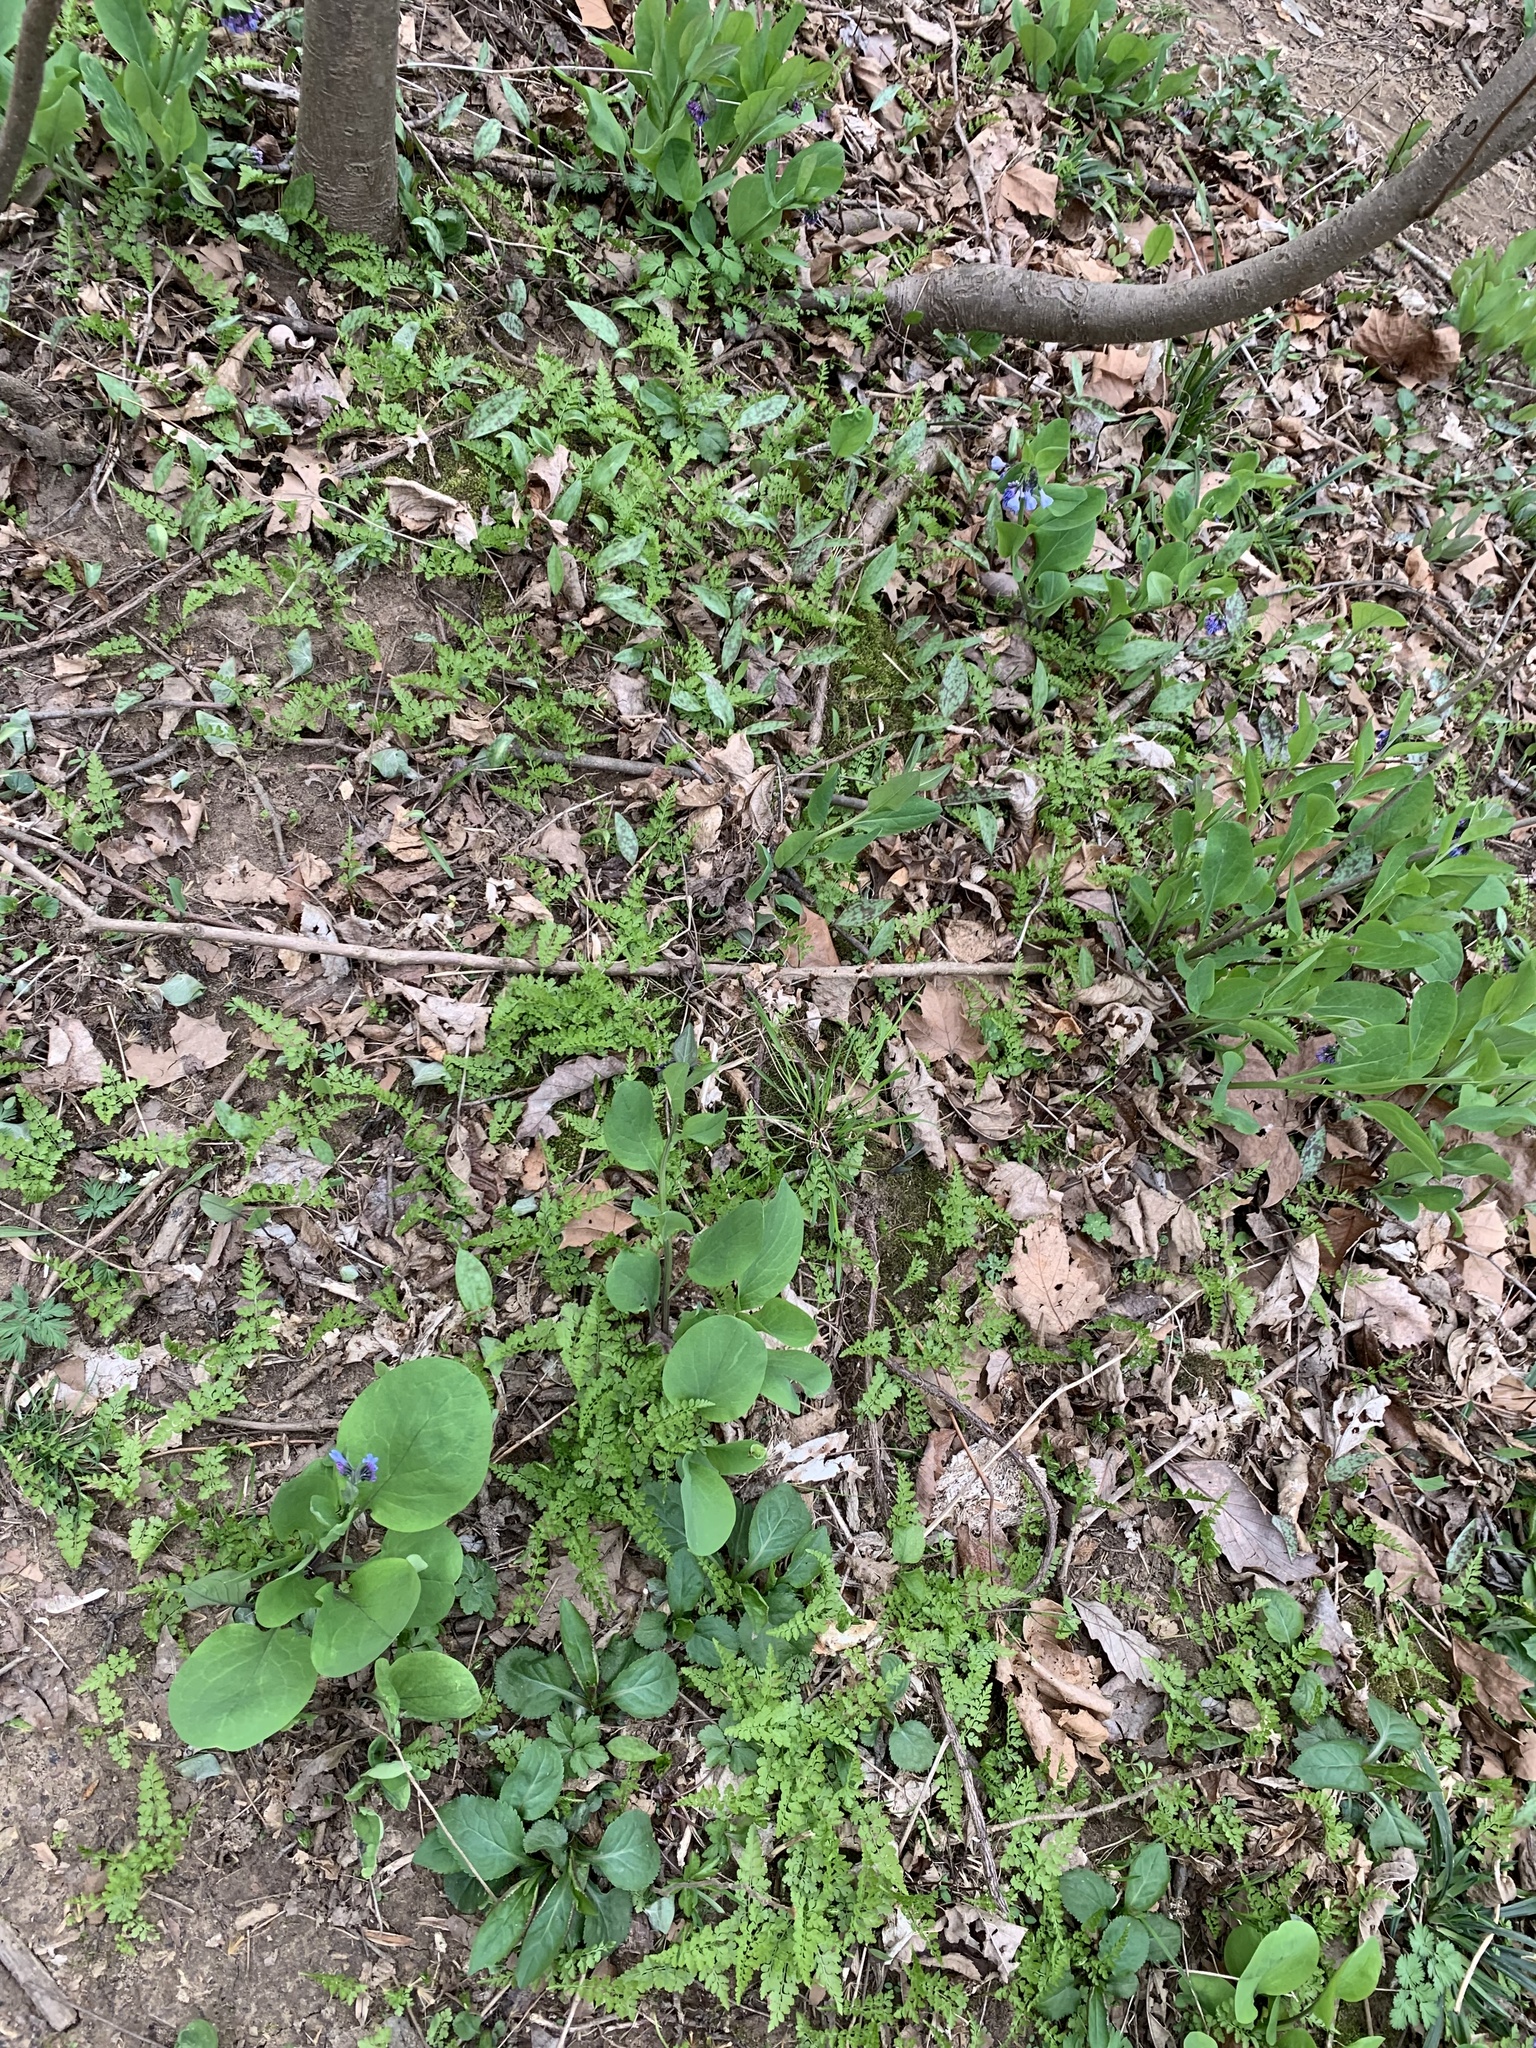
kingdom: Plantae
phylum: Tracheophyta
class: Polypodiopsida
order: Polypodiales
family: Cystopteridaceae
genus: Cystopteris
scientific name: Cystopteris protrusa
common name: Lowland brittle fern
